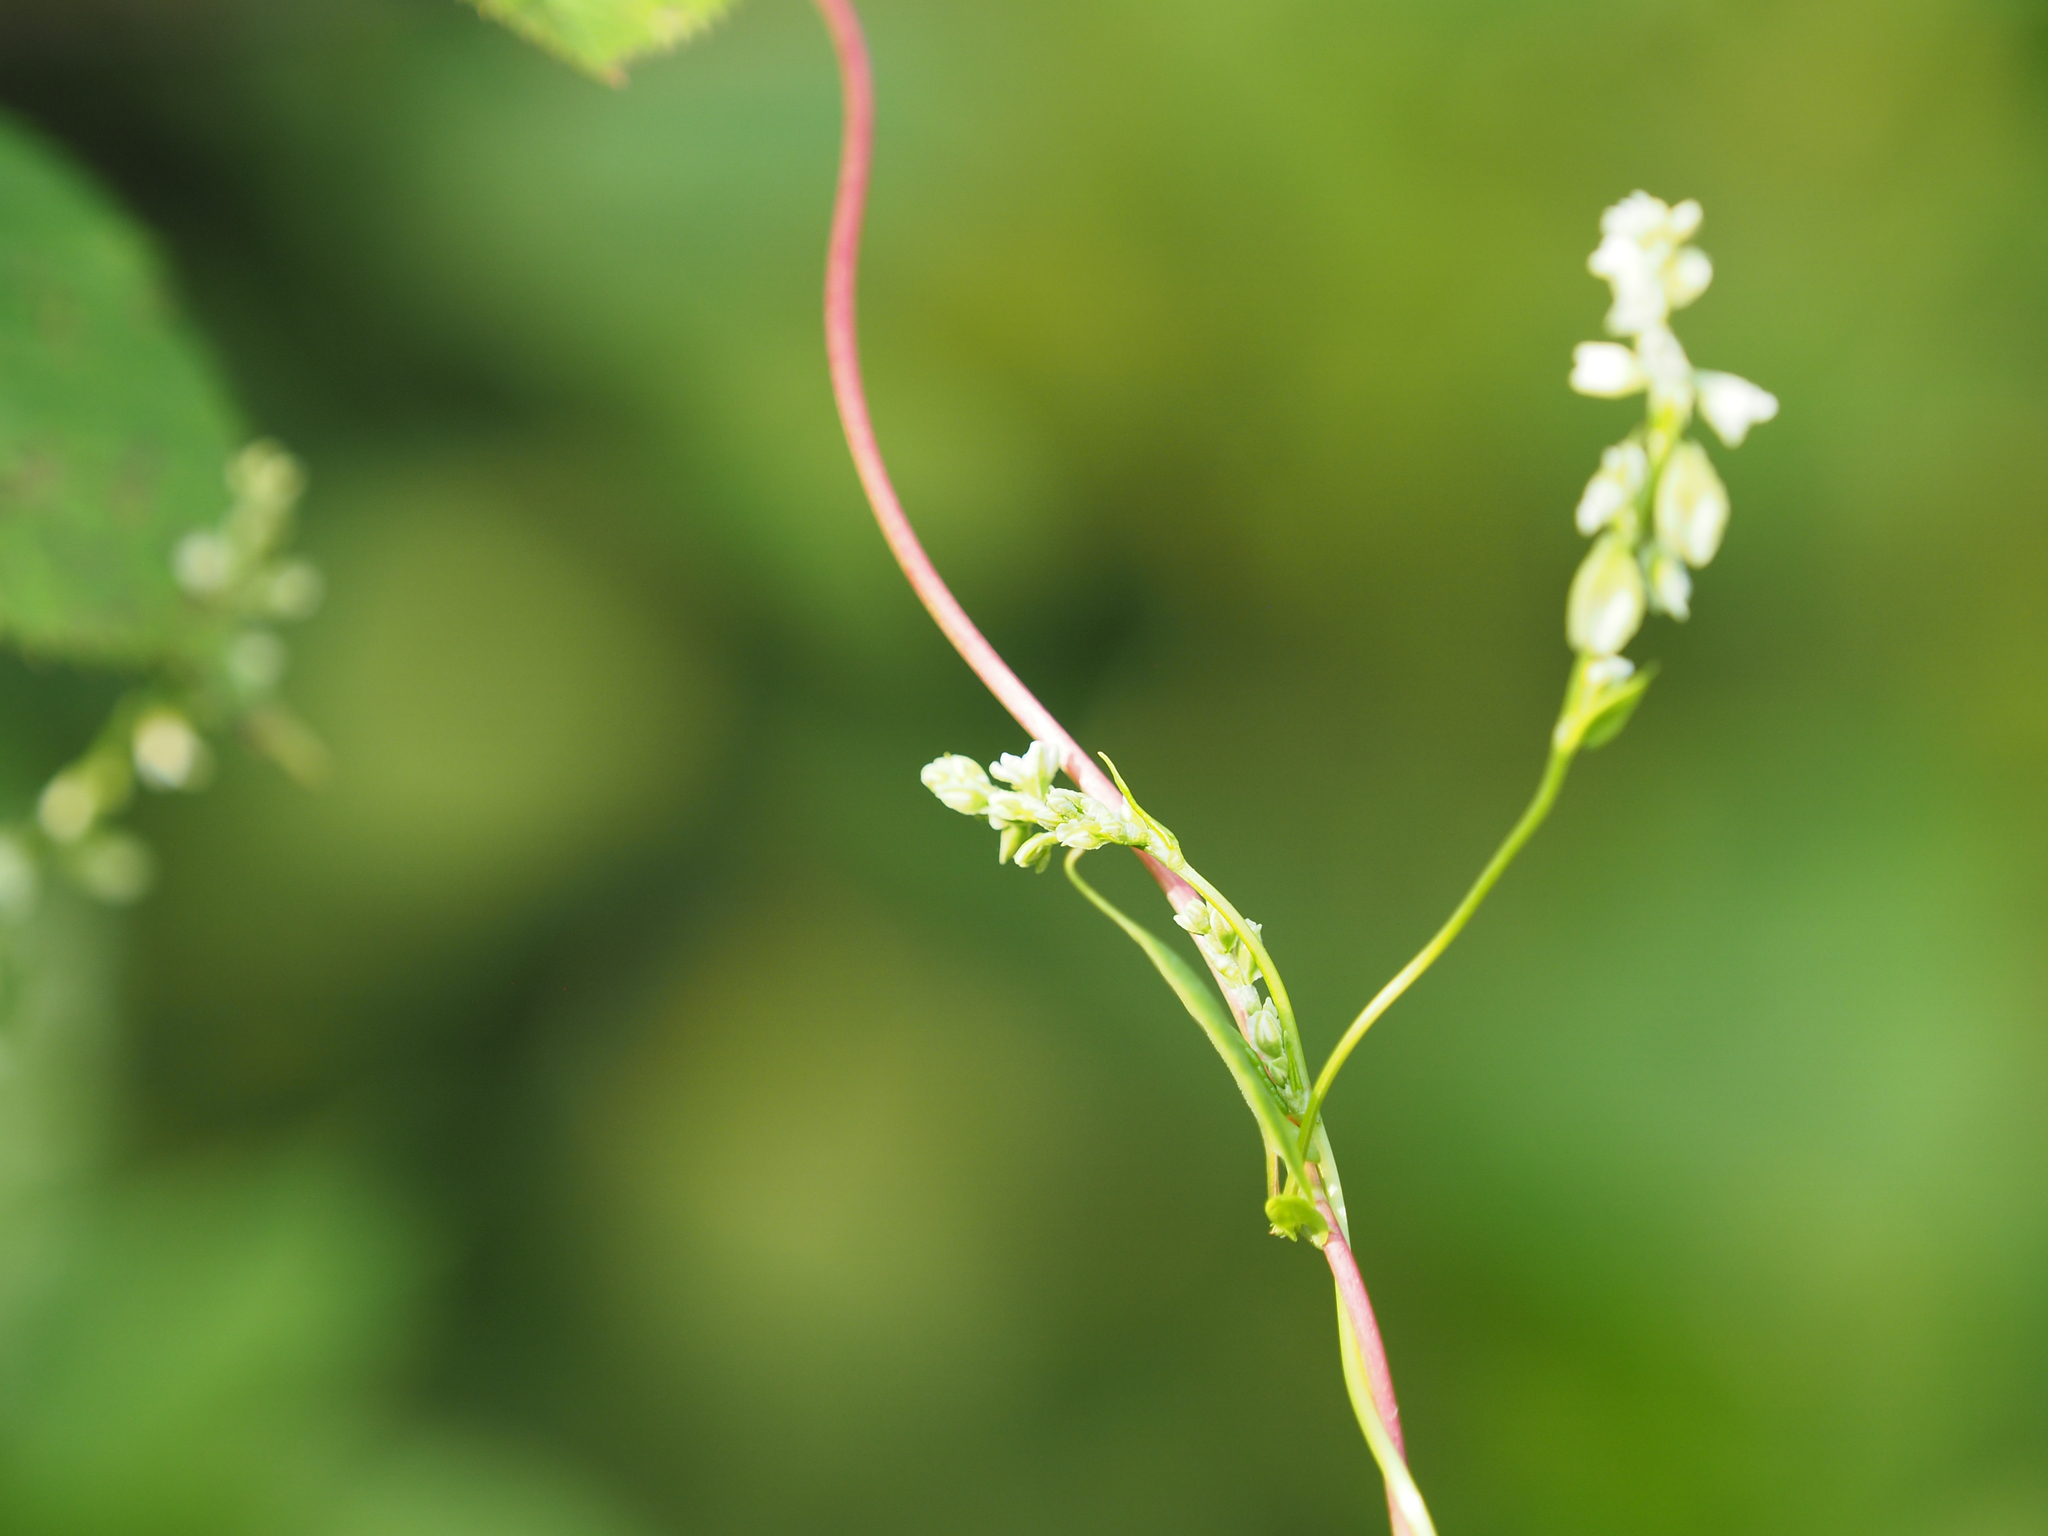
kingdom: Plantae
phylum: Tracheophyta
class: Magnoliopsida
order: Caryophyllales
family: Polygonaceae
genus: Fallopia
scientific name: Fallopia scandens
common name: Climbing false buckwheat
